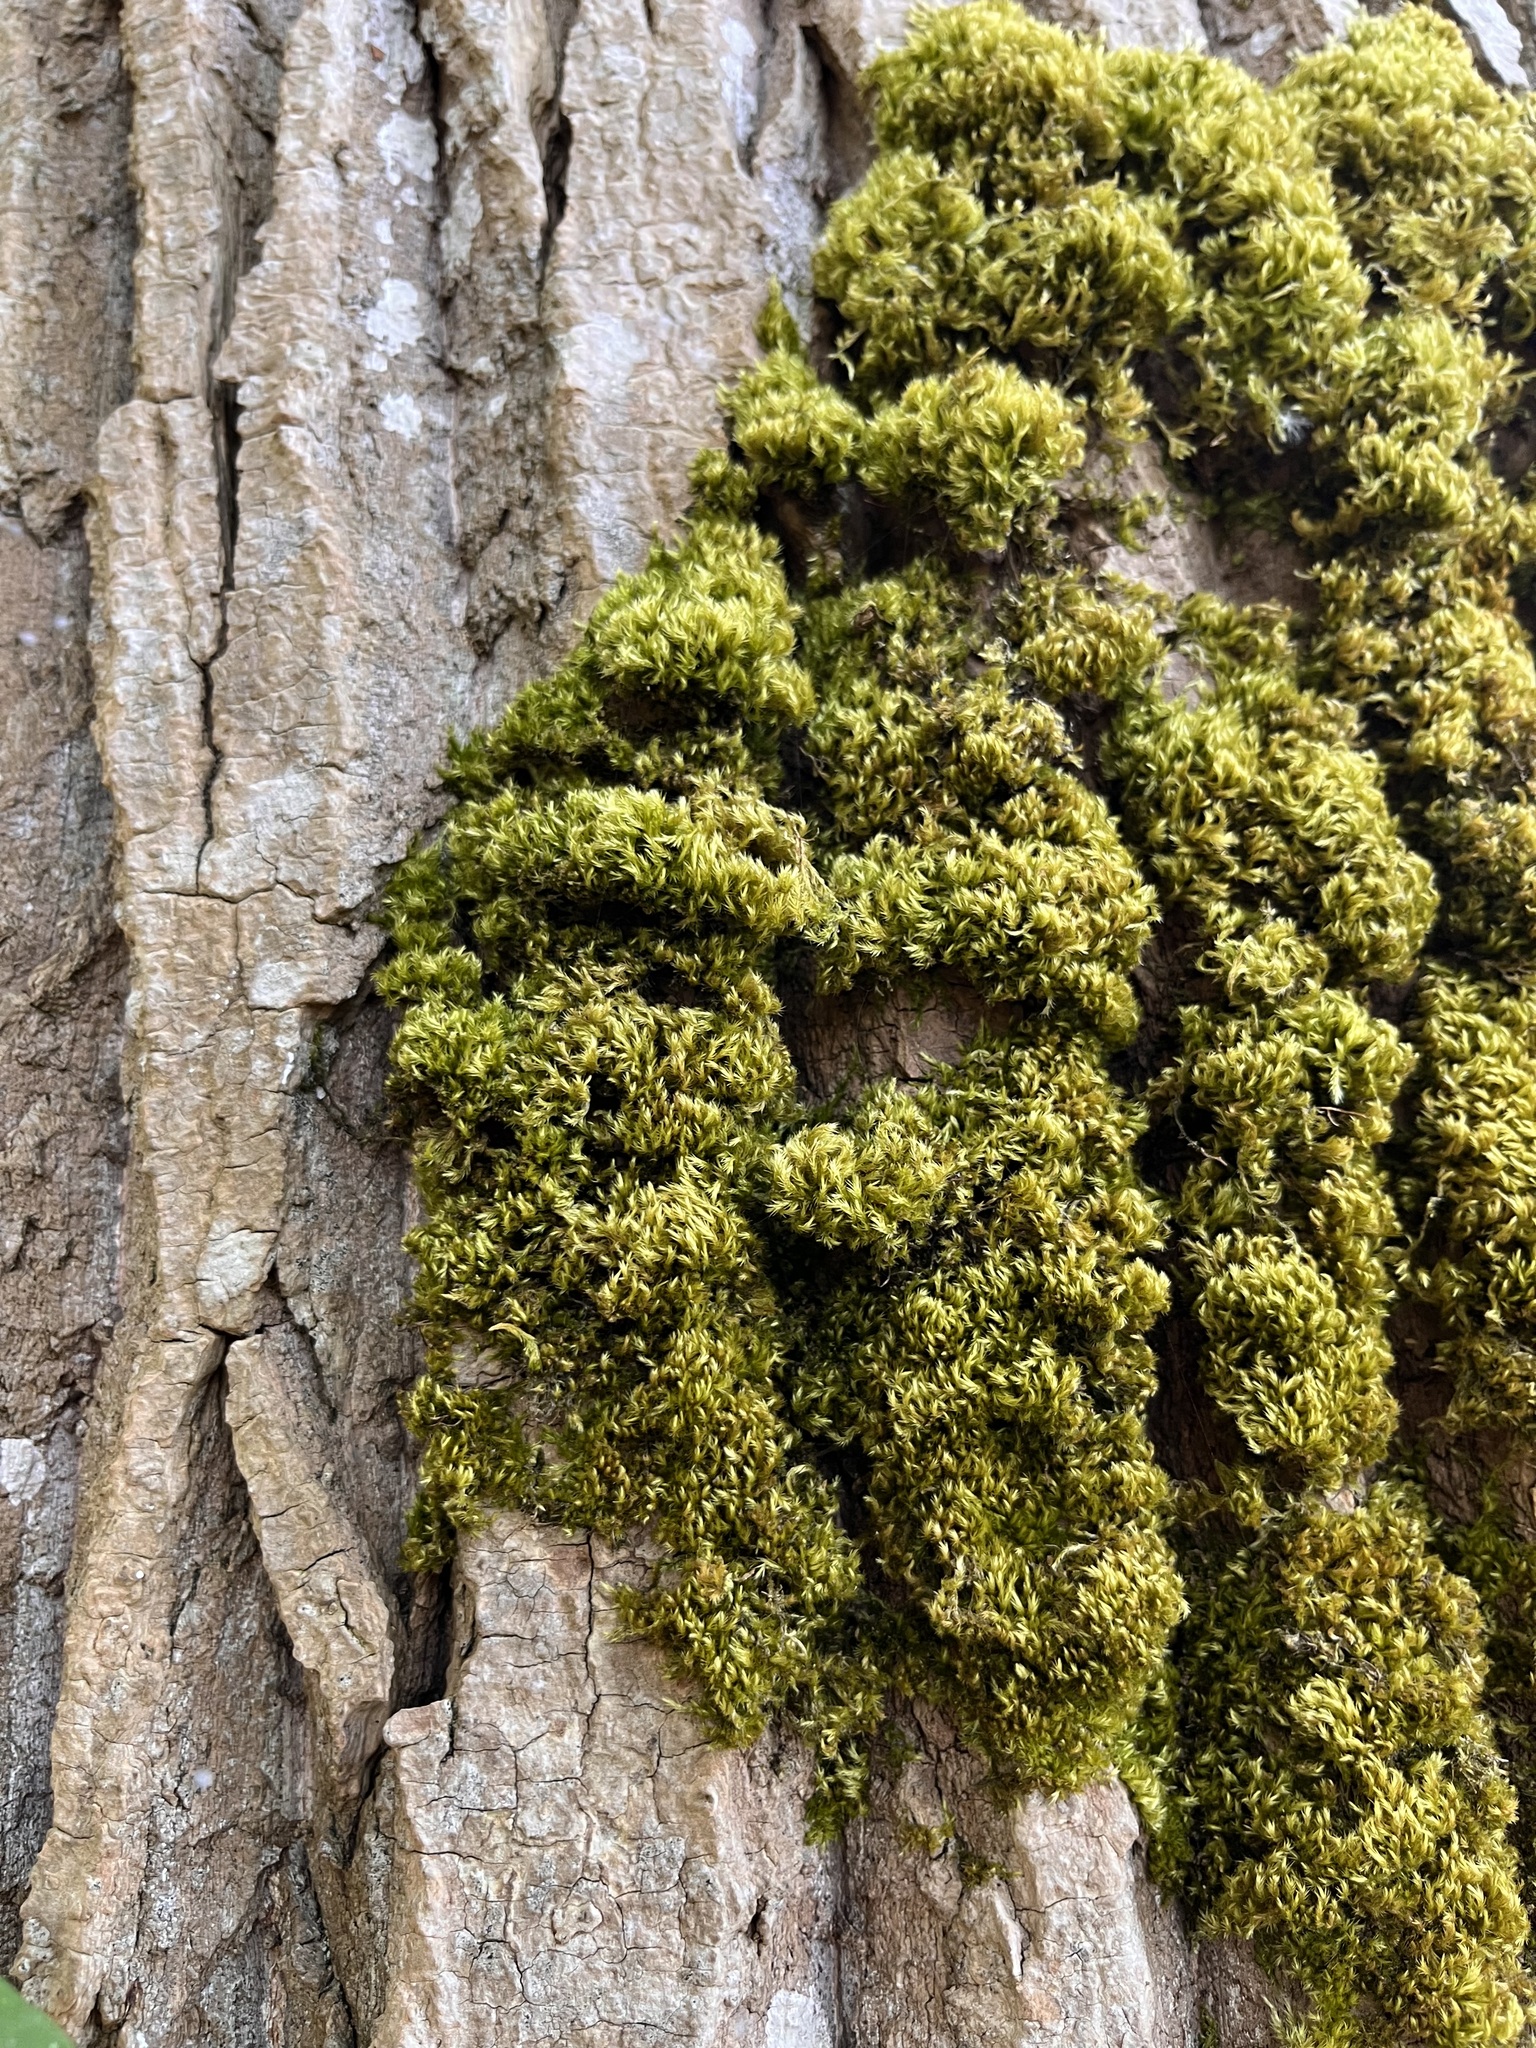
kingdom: Plantae
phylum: Bryophyta
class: Bryopsida
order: Hypnales
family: Brachytheciaceae
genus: Homalothecium
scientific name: Homalothecium nuttallii
